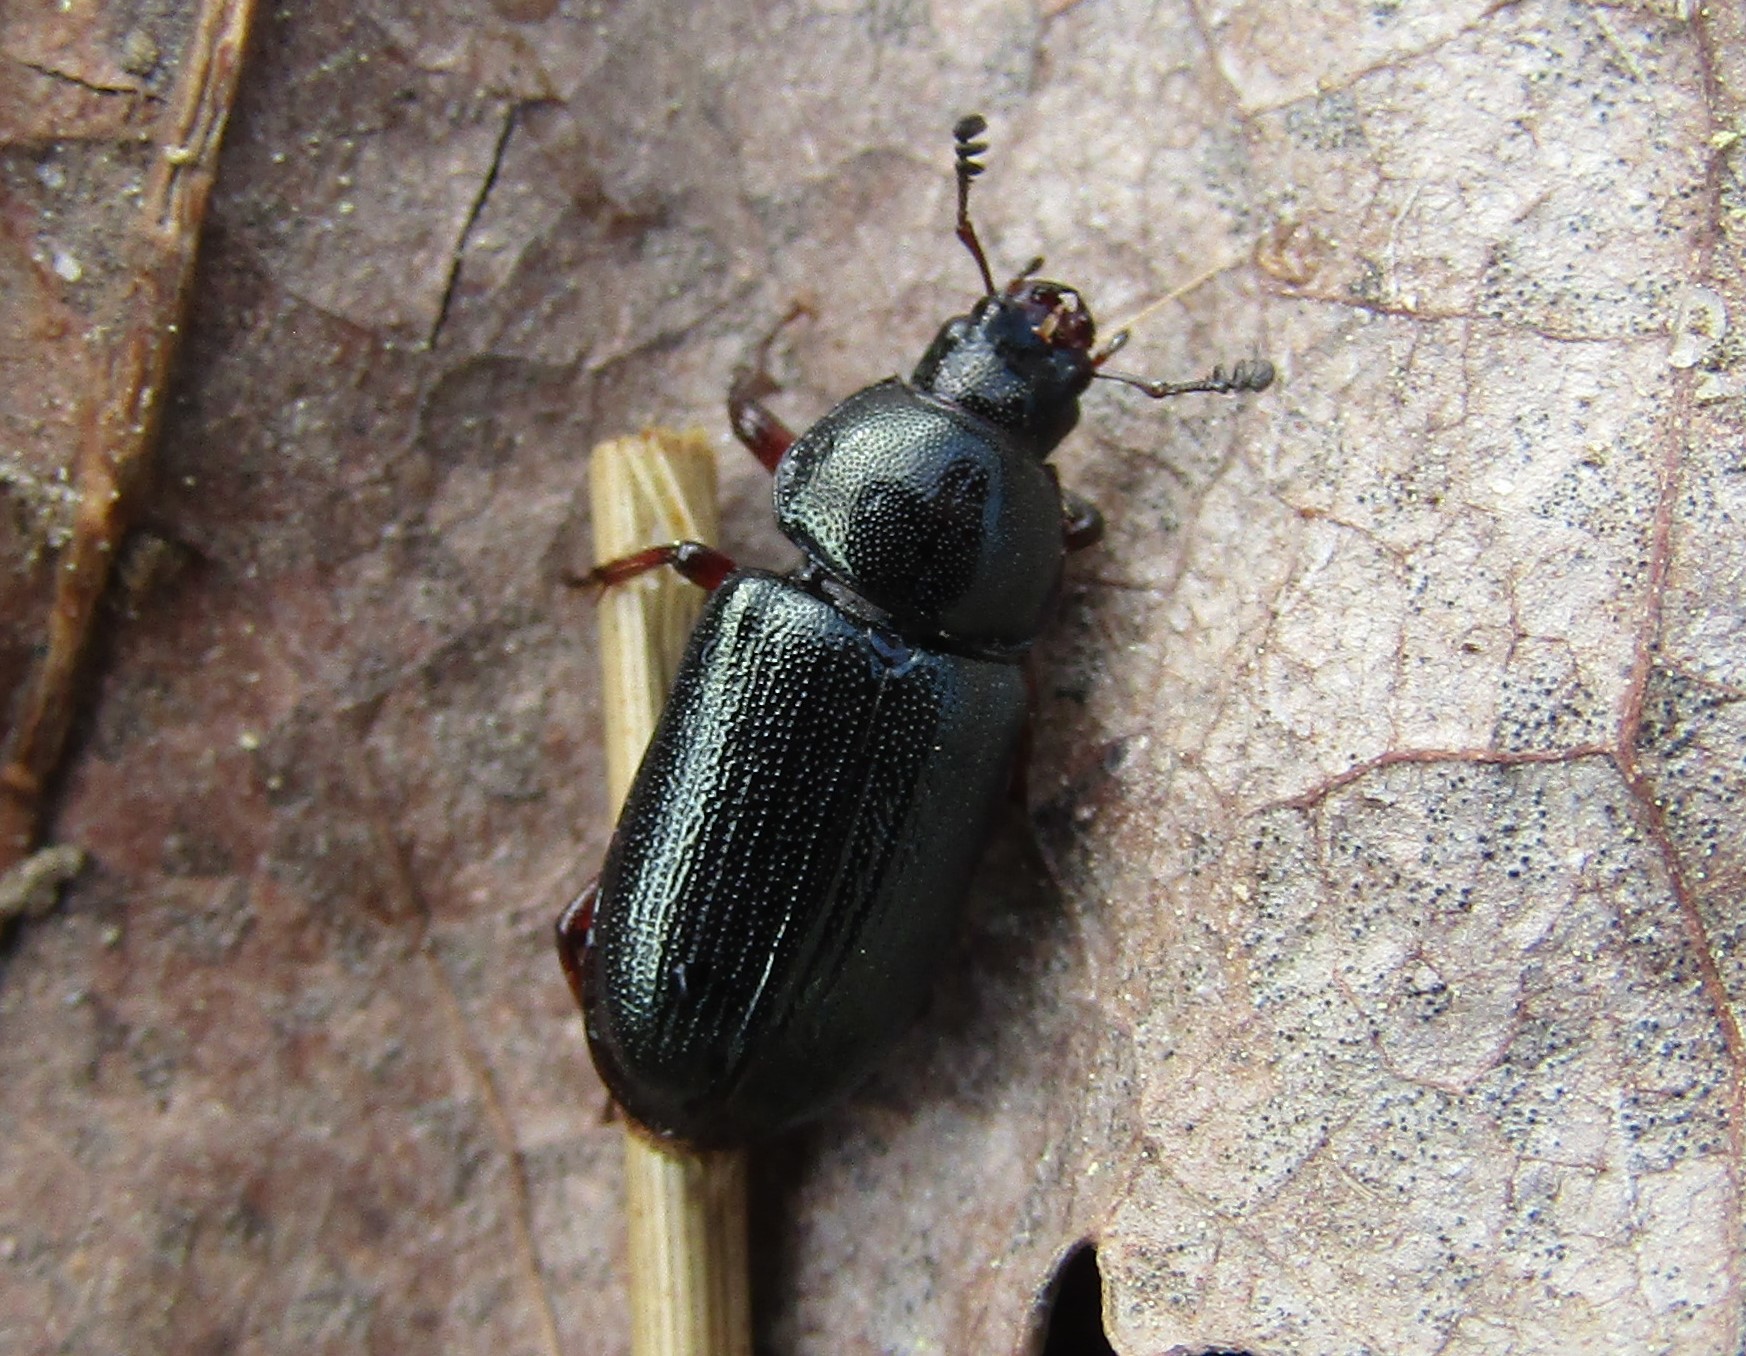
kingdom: Animalia
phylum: Arthropoda
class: Insecta
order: Coleoptera
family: Lucanidae
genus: Platycerus
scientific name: Platycerus quercus
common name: Oak stag beetle
